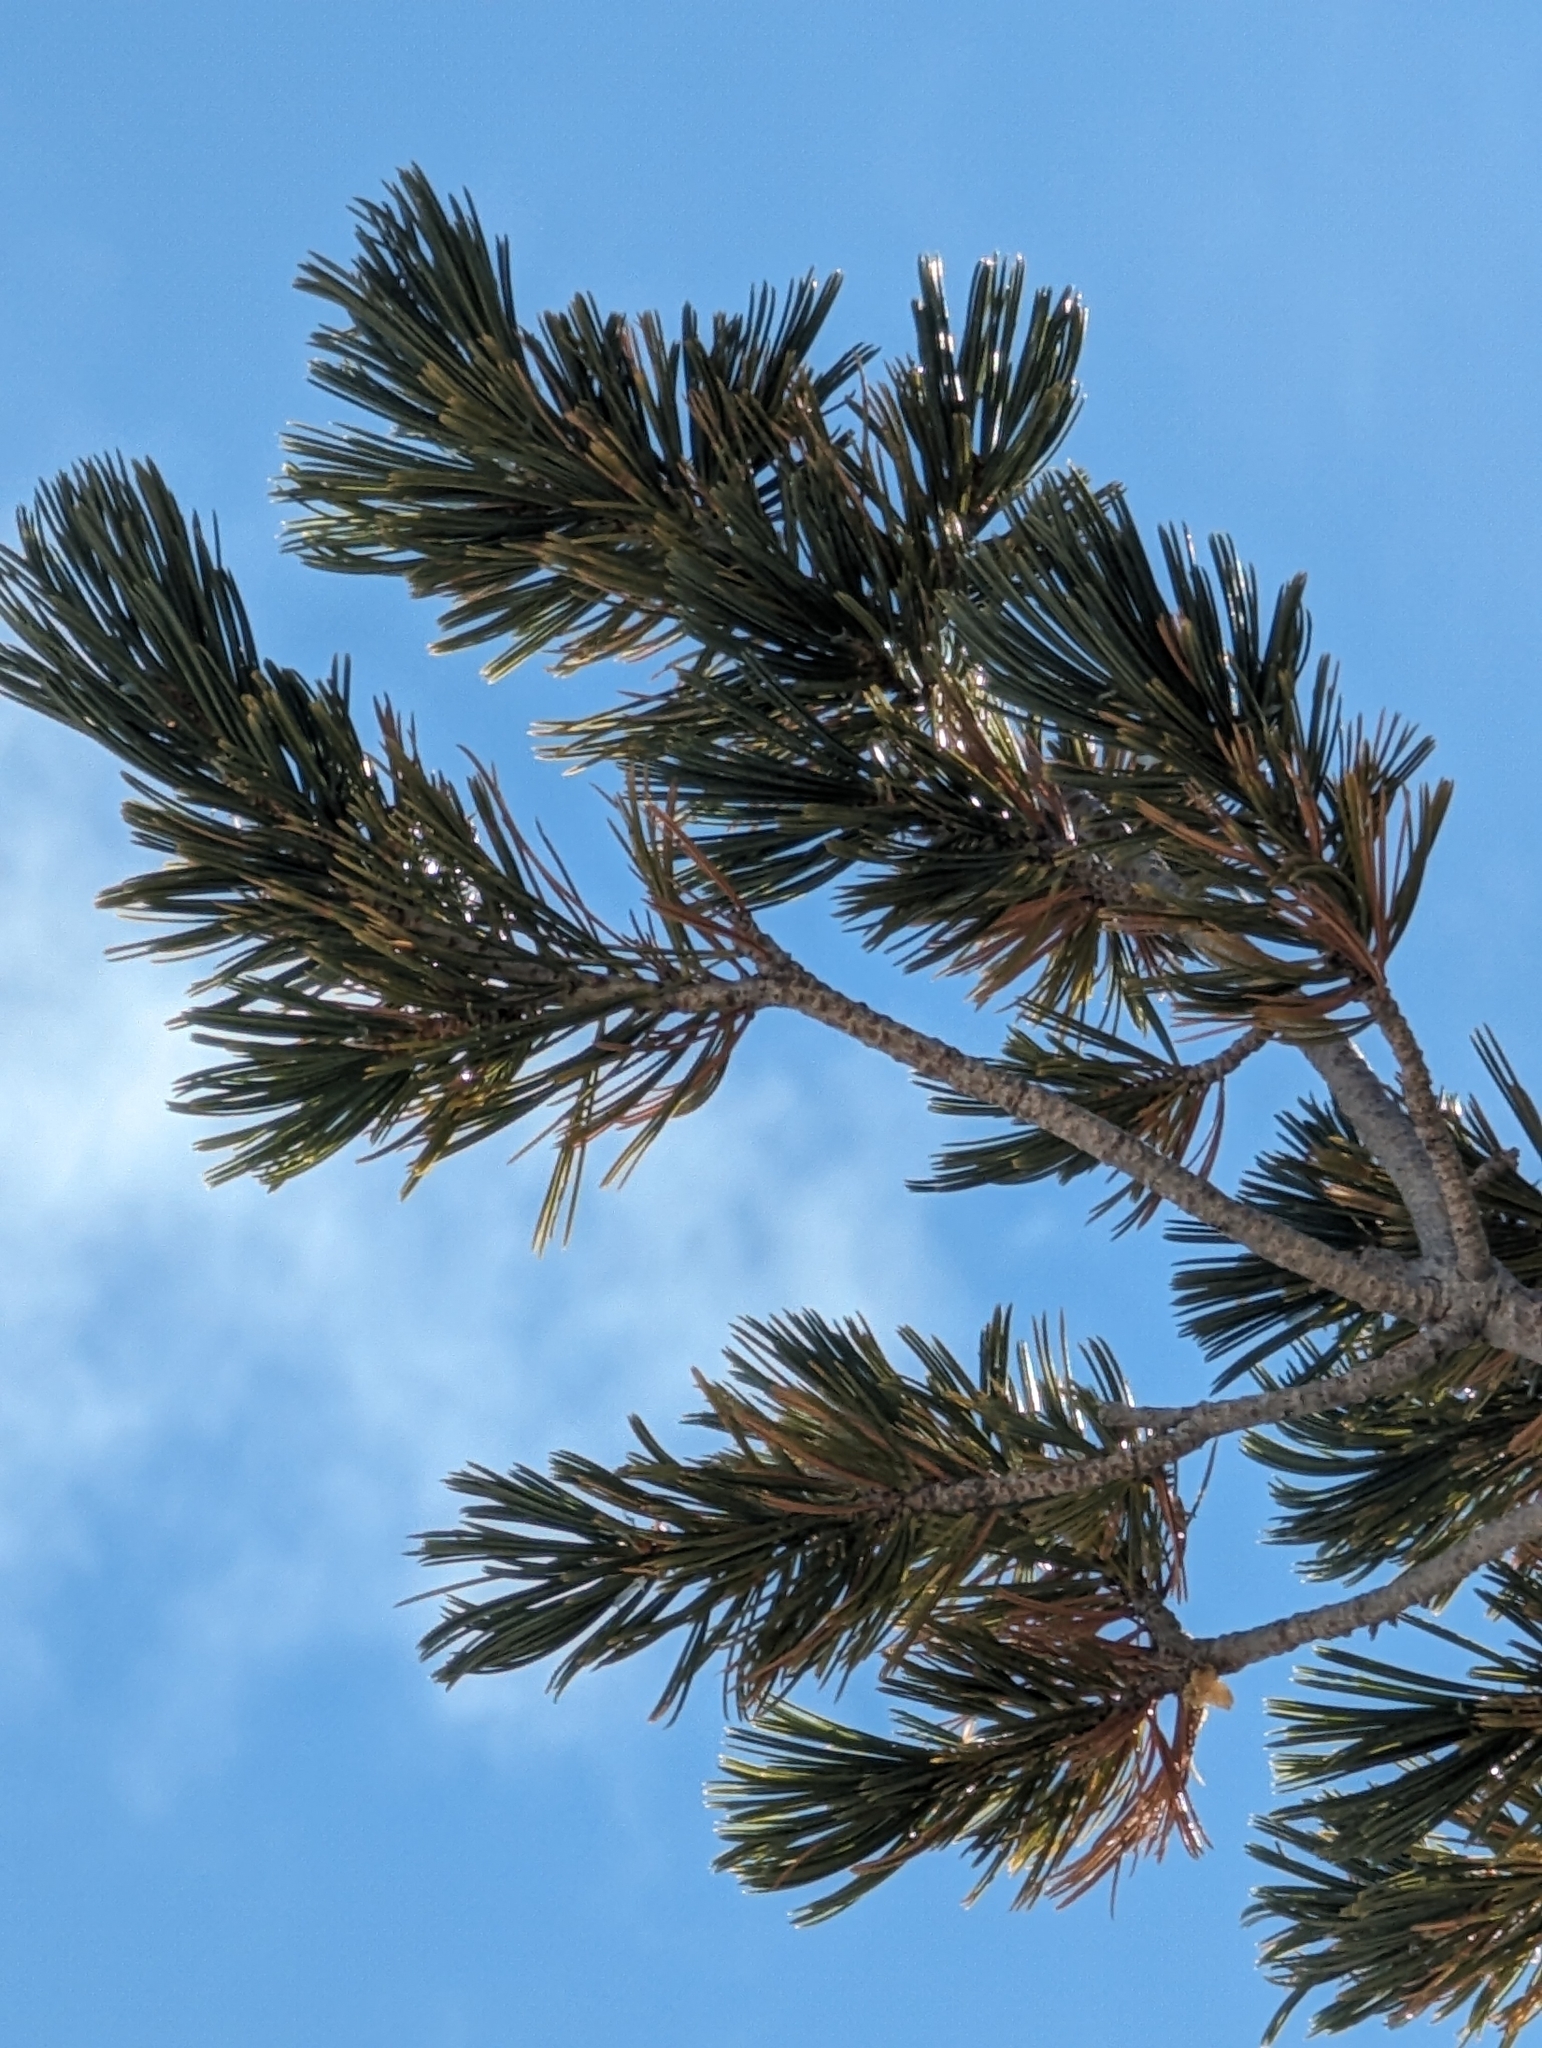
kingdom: Plantae
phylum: Tracheophyta
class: Pinopsida
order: Pinales
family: Pinaceae
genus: Pinus
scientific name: Pinus flexilis
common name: Limber pine
